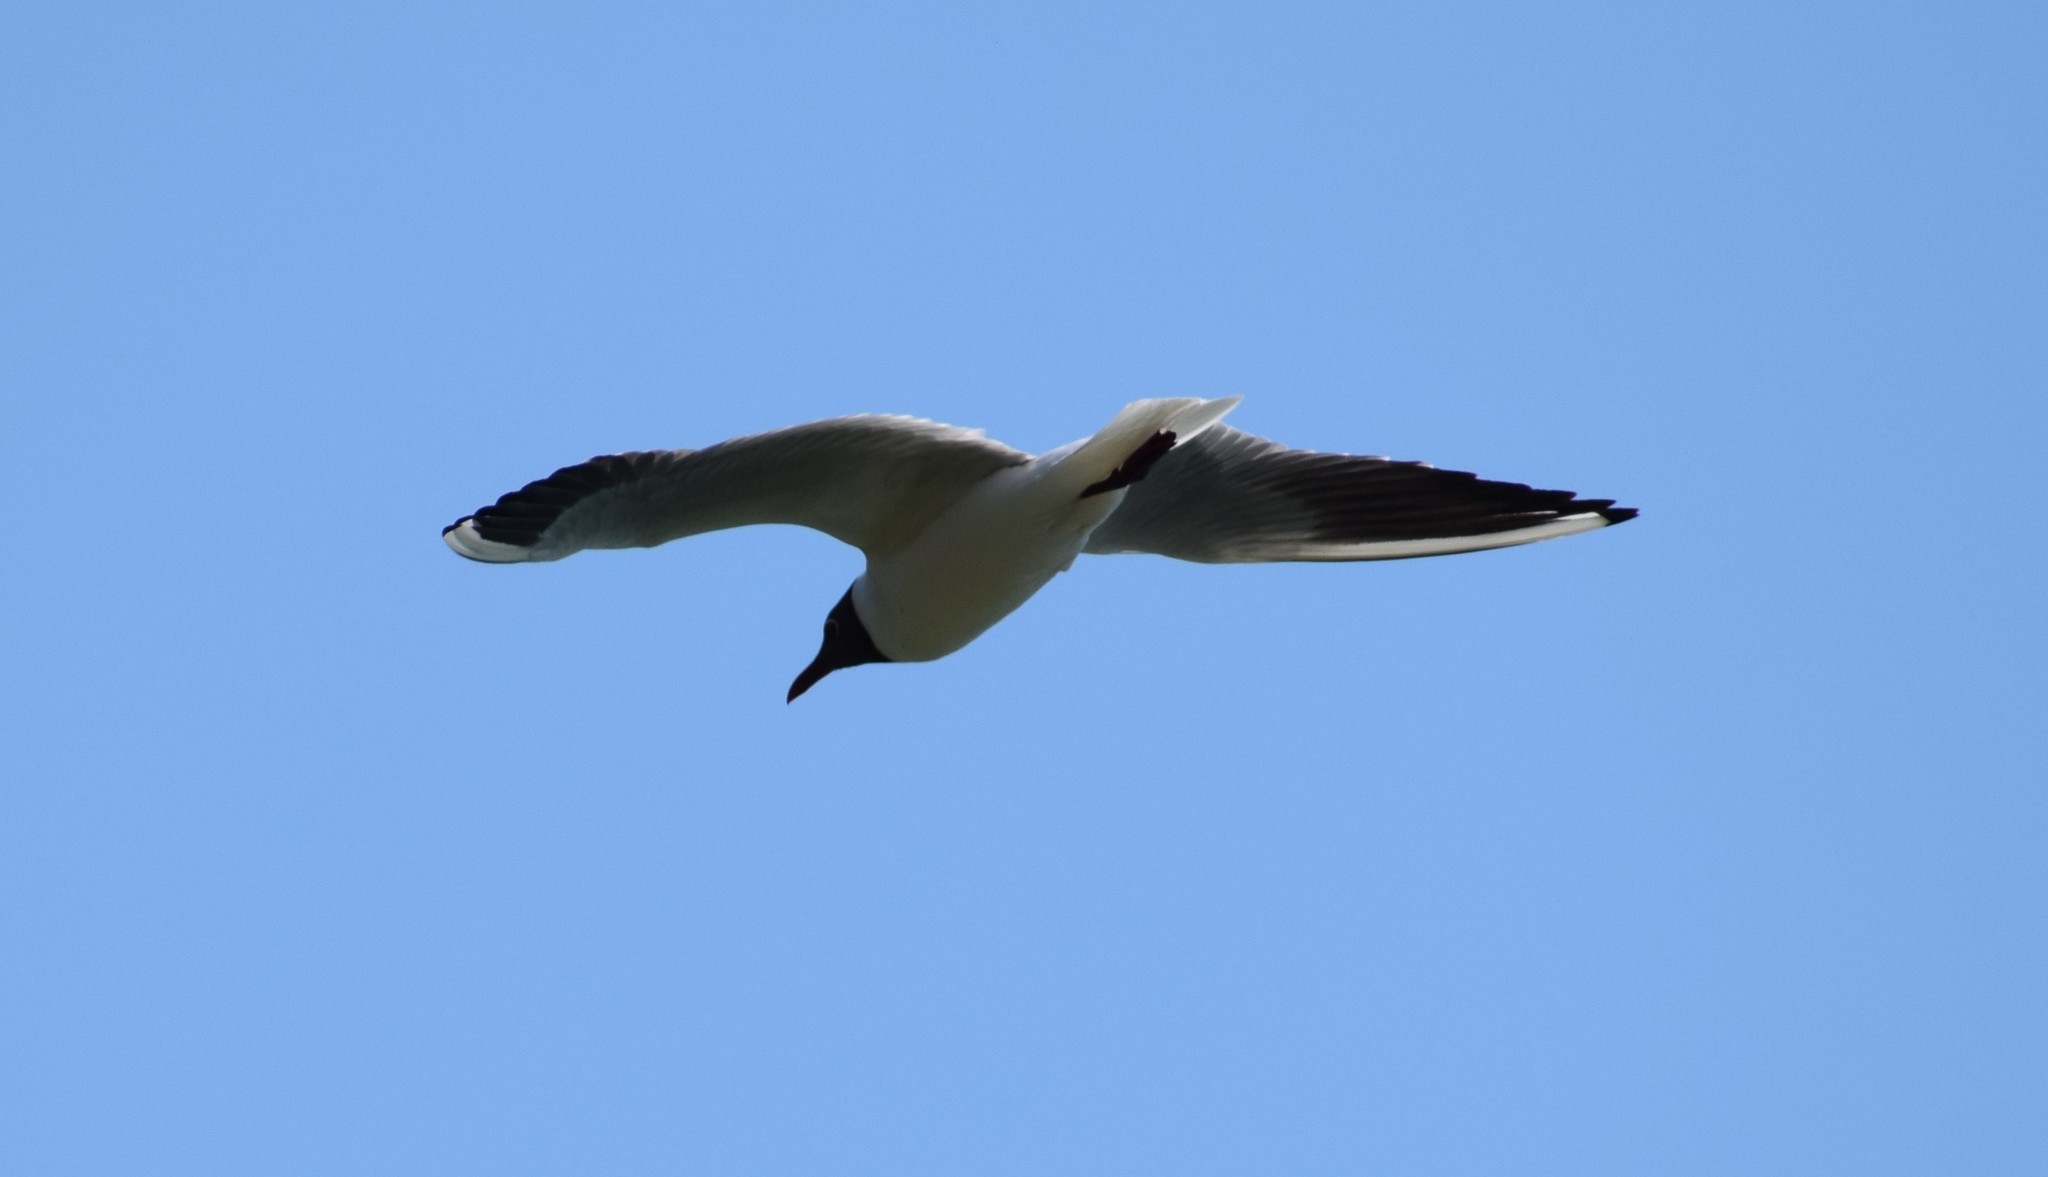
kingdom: Animalia
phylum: Chordata
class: Aves
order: Charadriiformes
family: Laridae
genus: Chroicocephalus
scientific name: Chroicocephalus ridibundus
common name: Black-headed gull
